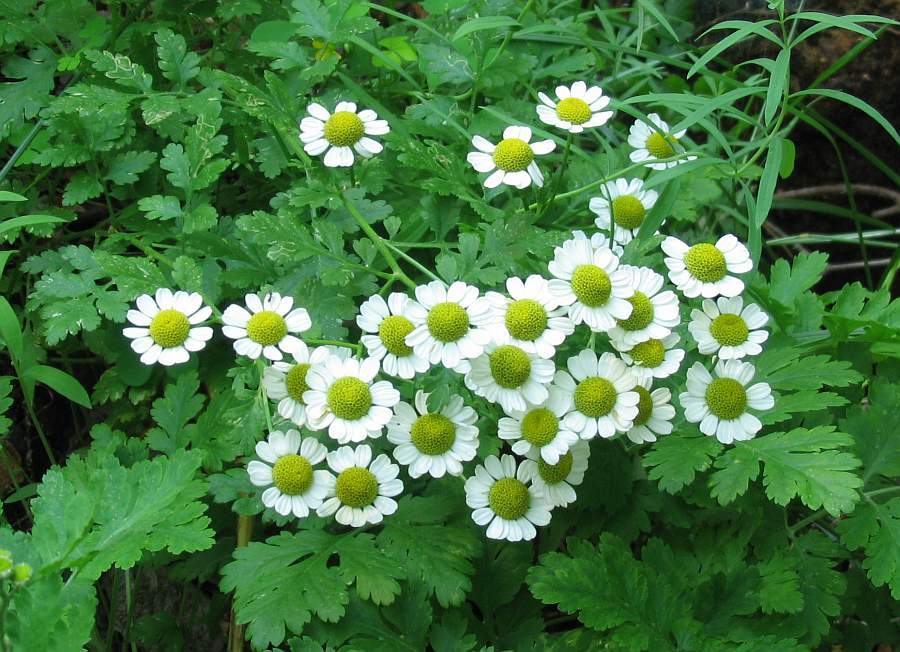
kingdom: Plantae
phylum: Tracheophyta
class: Magnoliopsida
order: Asterales
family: Asteraceae
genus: Tanacetum
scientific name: Tanacetum parthenium
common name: Feverfew
